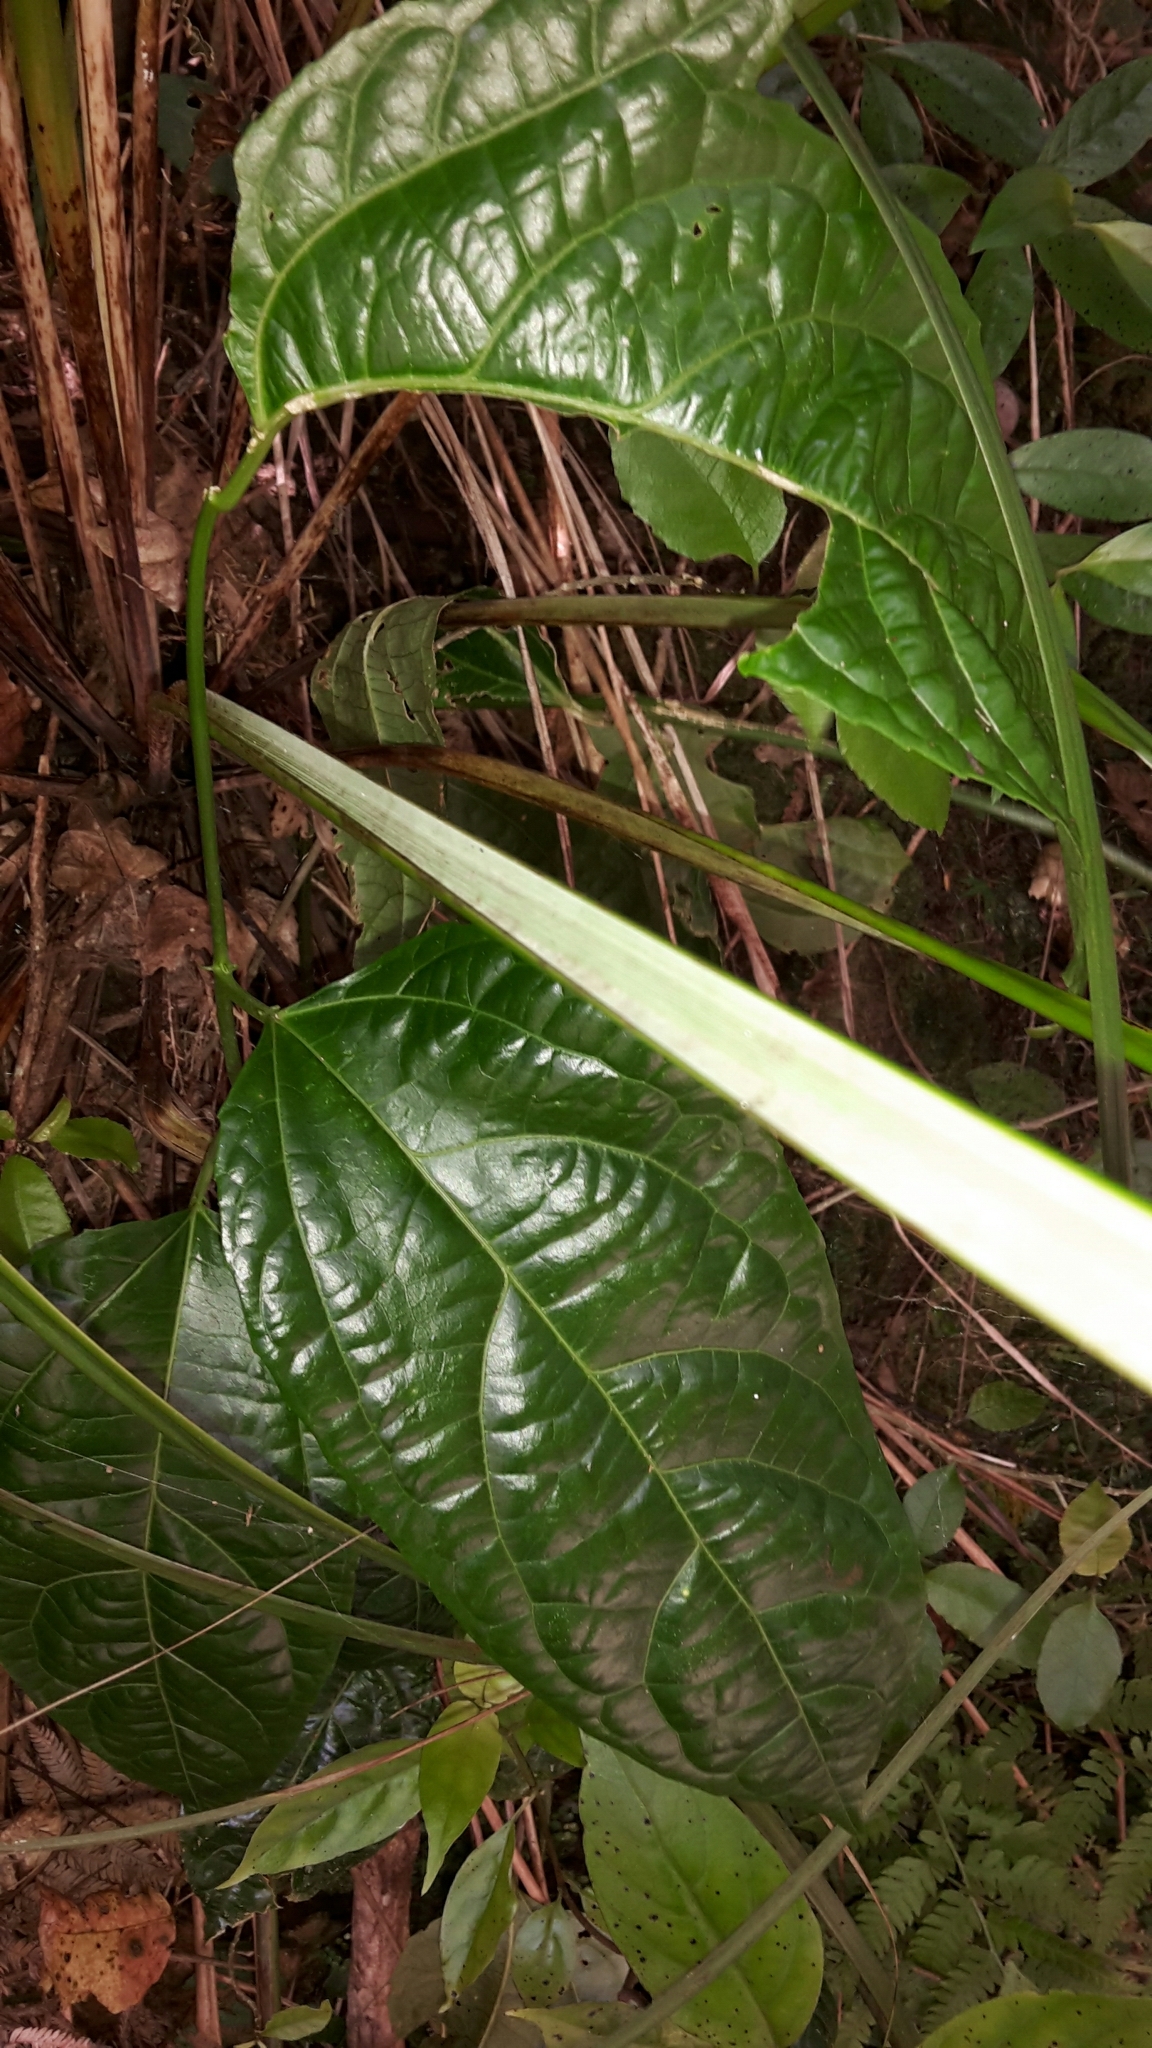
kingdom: Plantae
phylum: Tracheophyta
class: Magnoliopsida
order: Malpighiales
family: Passifloraceae
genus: Passiflora
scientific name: Passiflora edulis
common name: Purple granadilla
